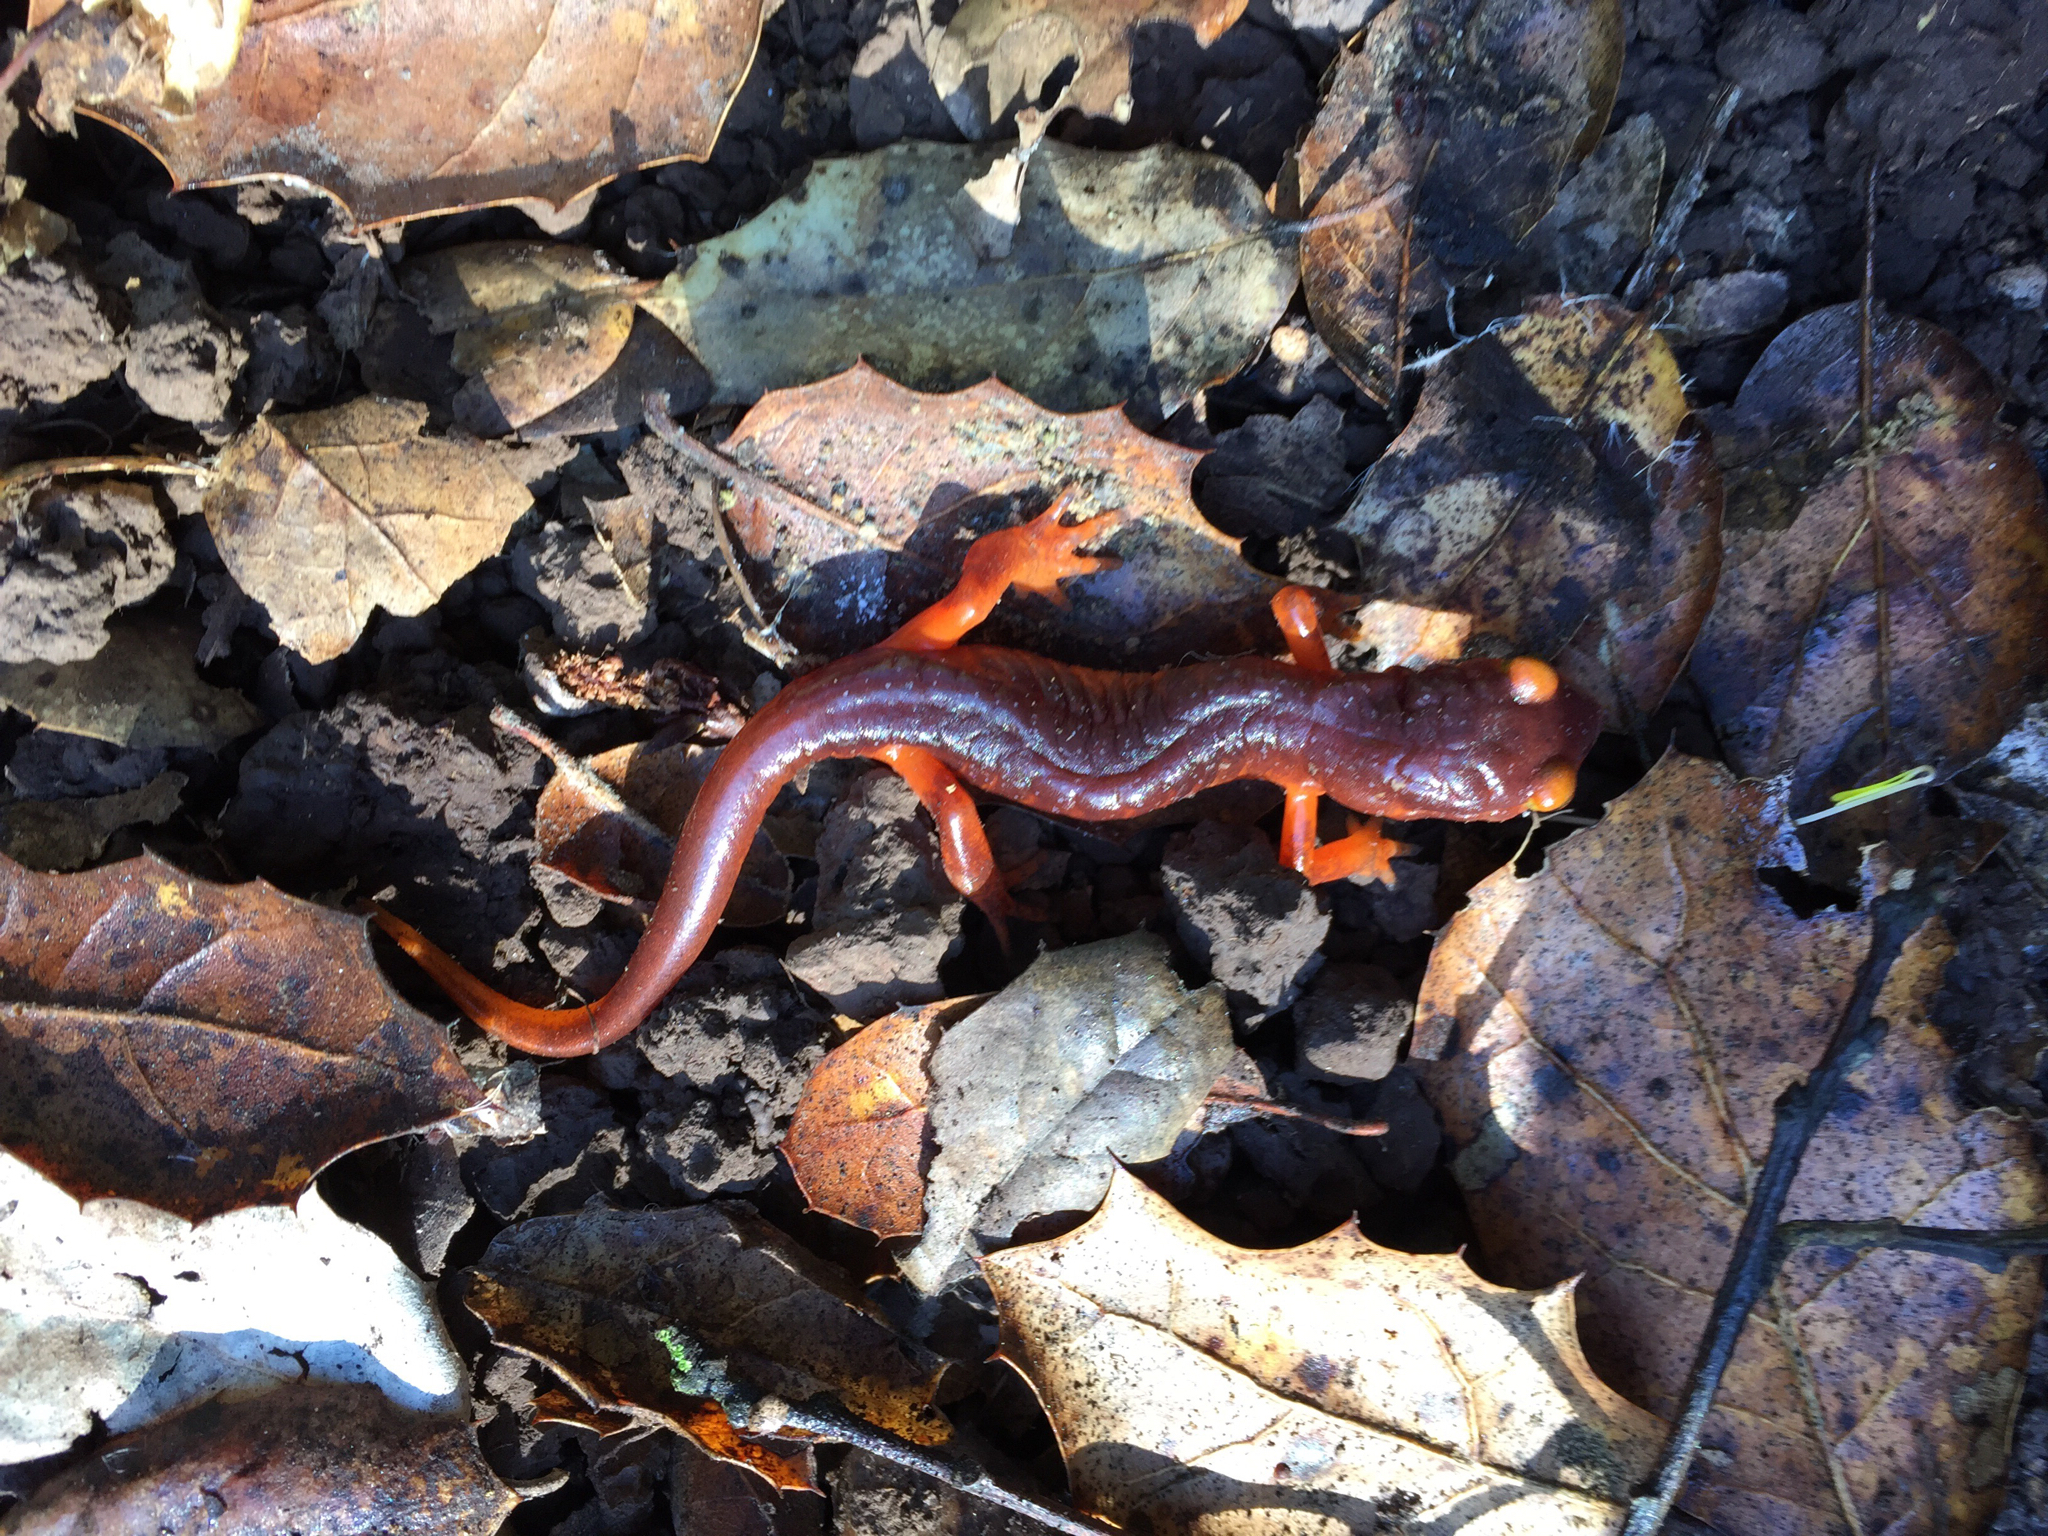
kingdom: Animalia
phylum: Chordata
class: Amphibia
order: Caudata
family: Plethodontidae
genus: Ensatina
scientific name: Ensatina eschscholtzii
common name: Ensatina
